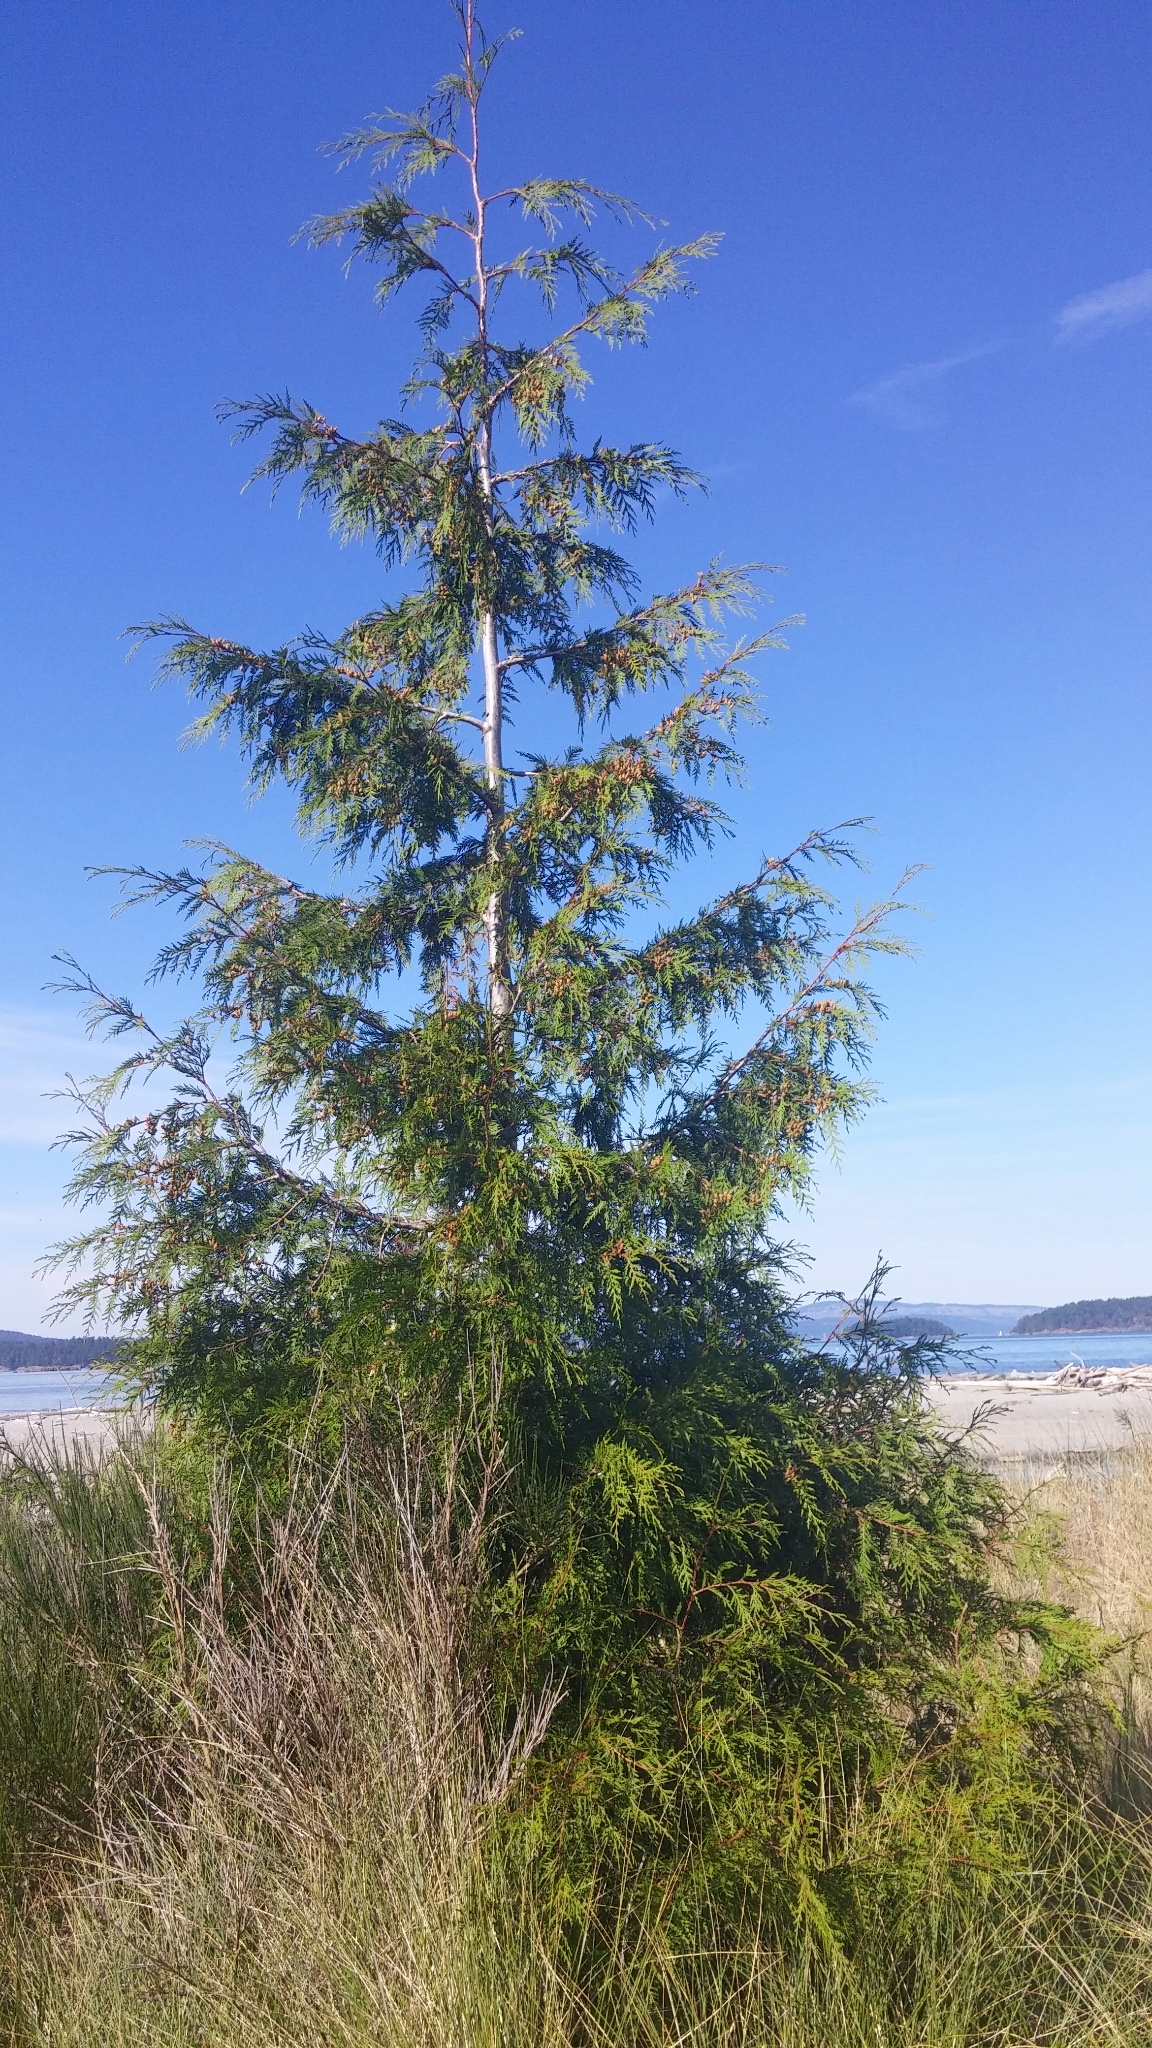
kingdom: Plantae
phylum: Tracheophyta
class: Pinopsida
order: Pinales
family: Cupressaceae
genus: Thuja
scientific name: Thuja plicata
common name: Western red-cedar
